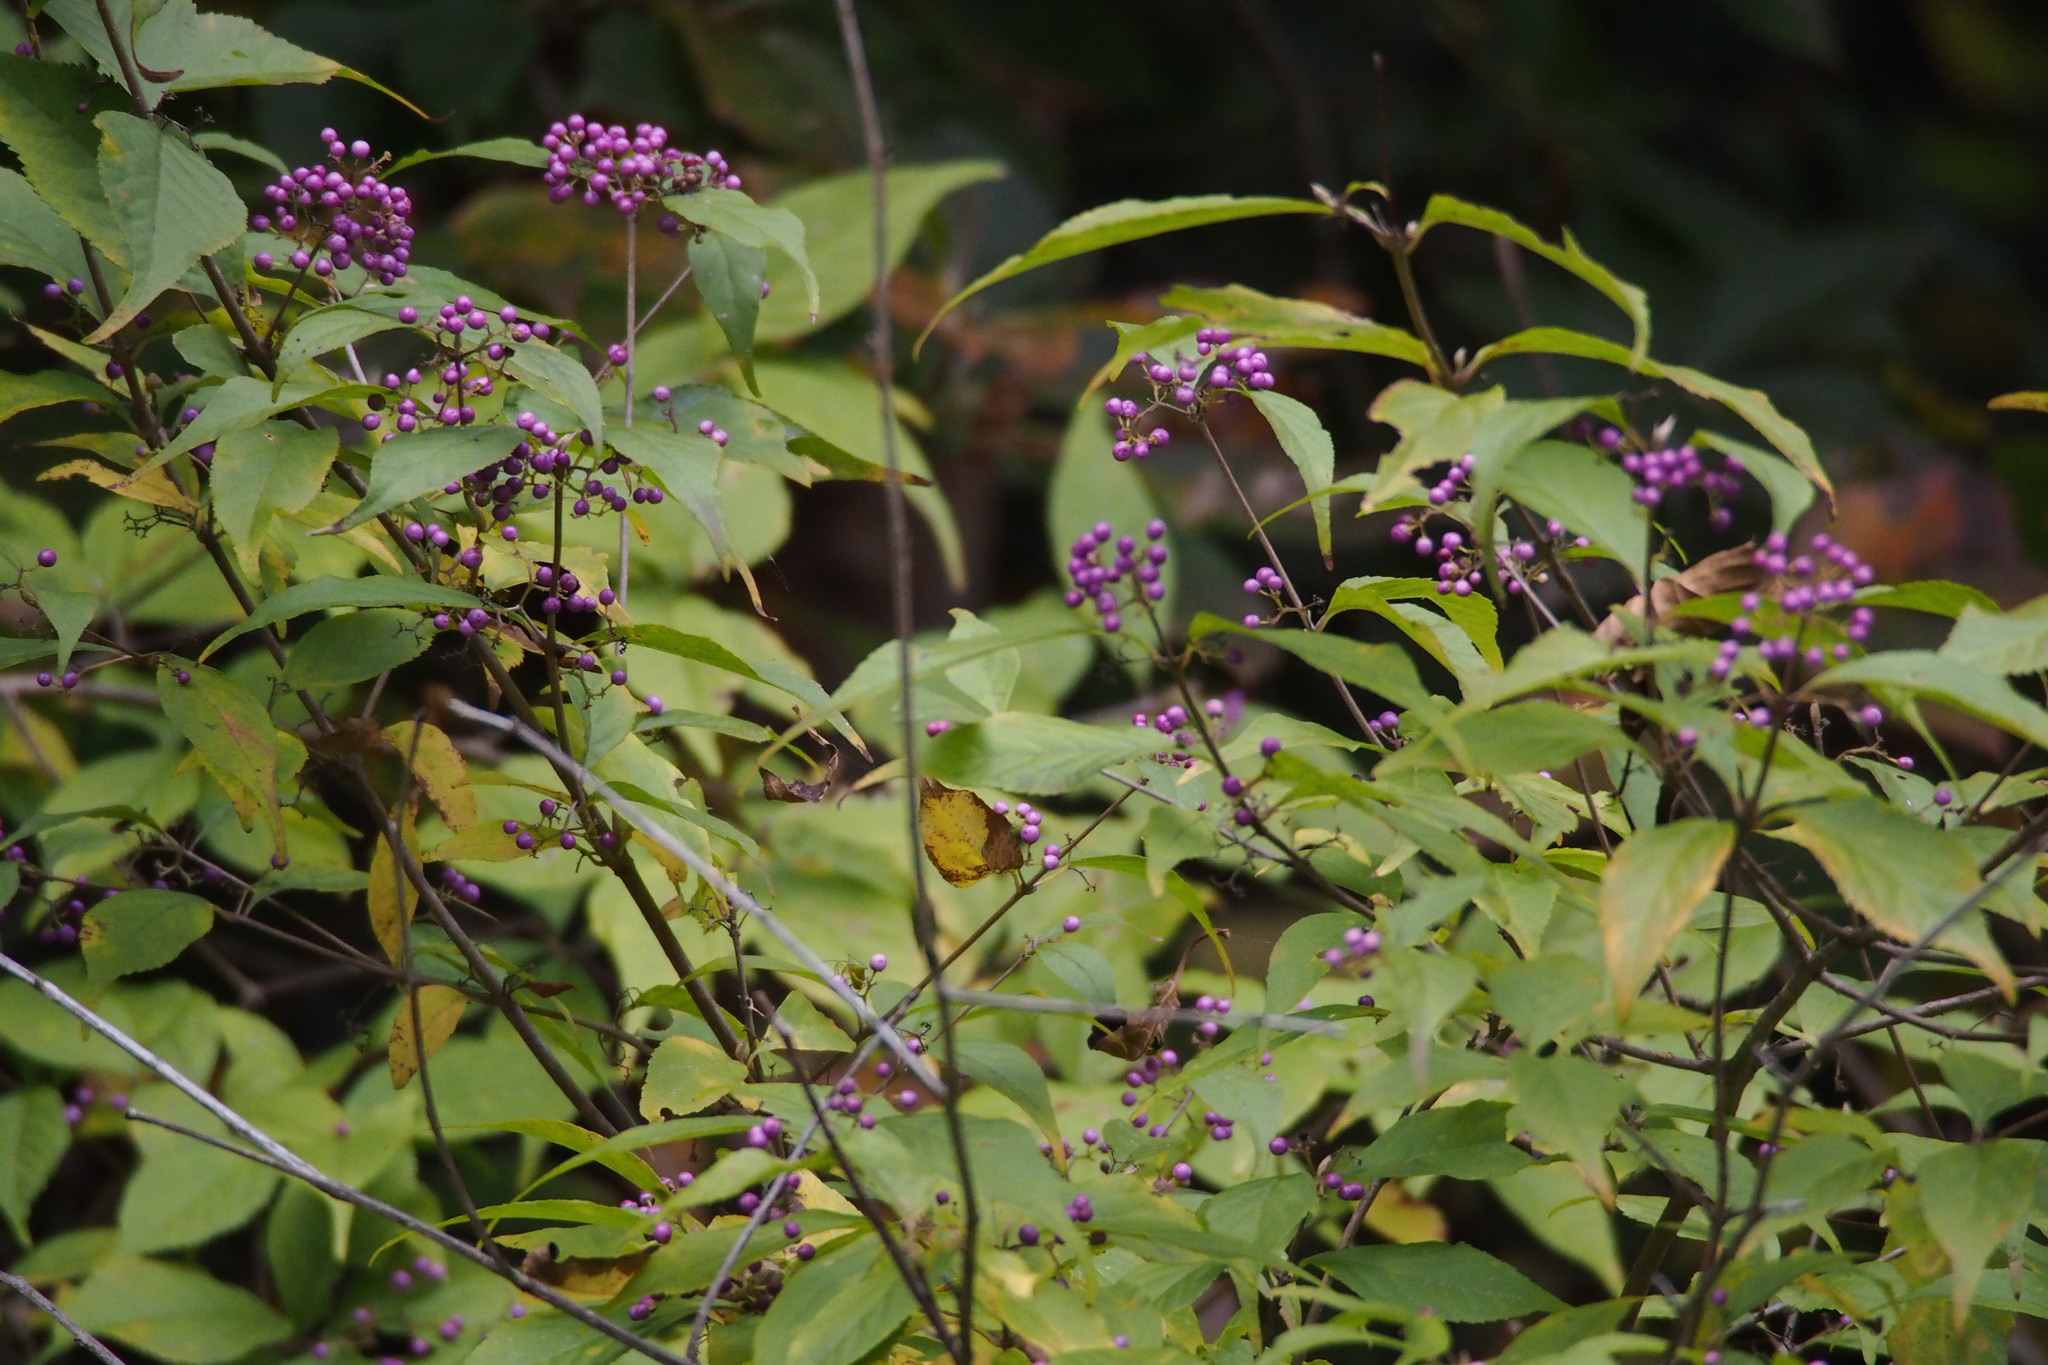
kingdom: Plantae
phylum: Tracheophyta
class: Magnoliopsida
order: Lamiales
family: Lamiaceae
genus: Callicarpa
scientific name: Callicarpa japonica
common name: Japanese beauty-berry
